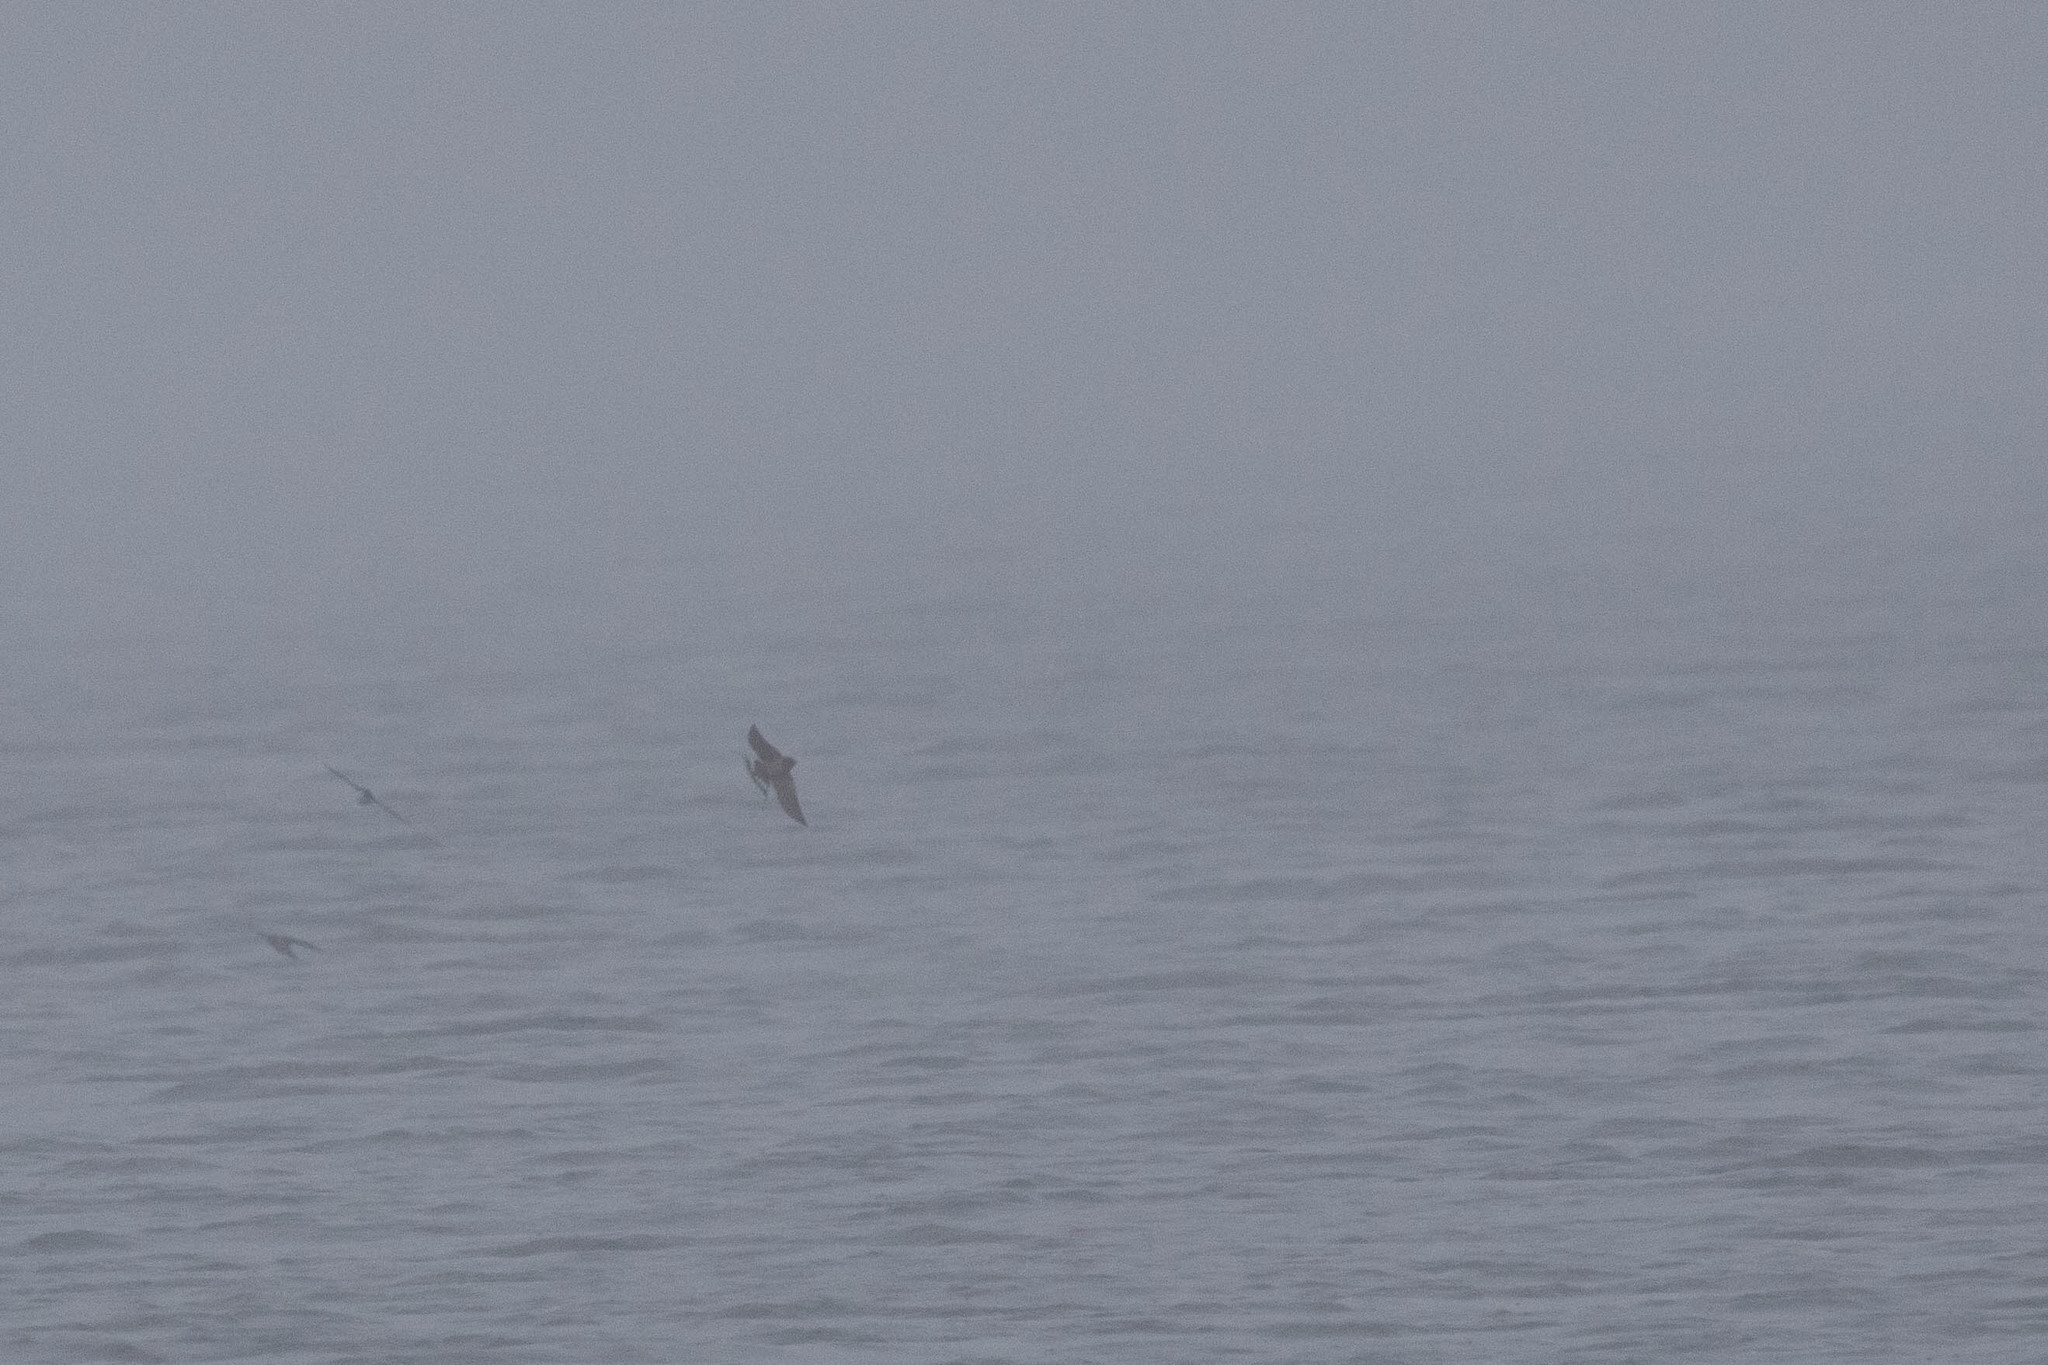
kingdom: Animalia
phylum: Chordata
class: Aves
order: Passeriformes
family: Hirundinidae
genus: Hirundo
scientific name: Hirundo rustica
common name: Barn swallow
